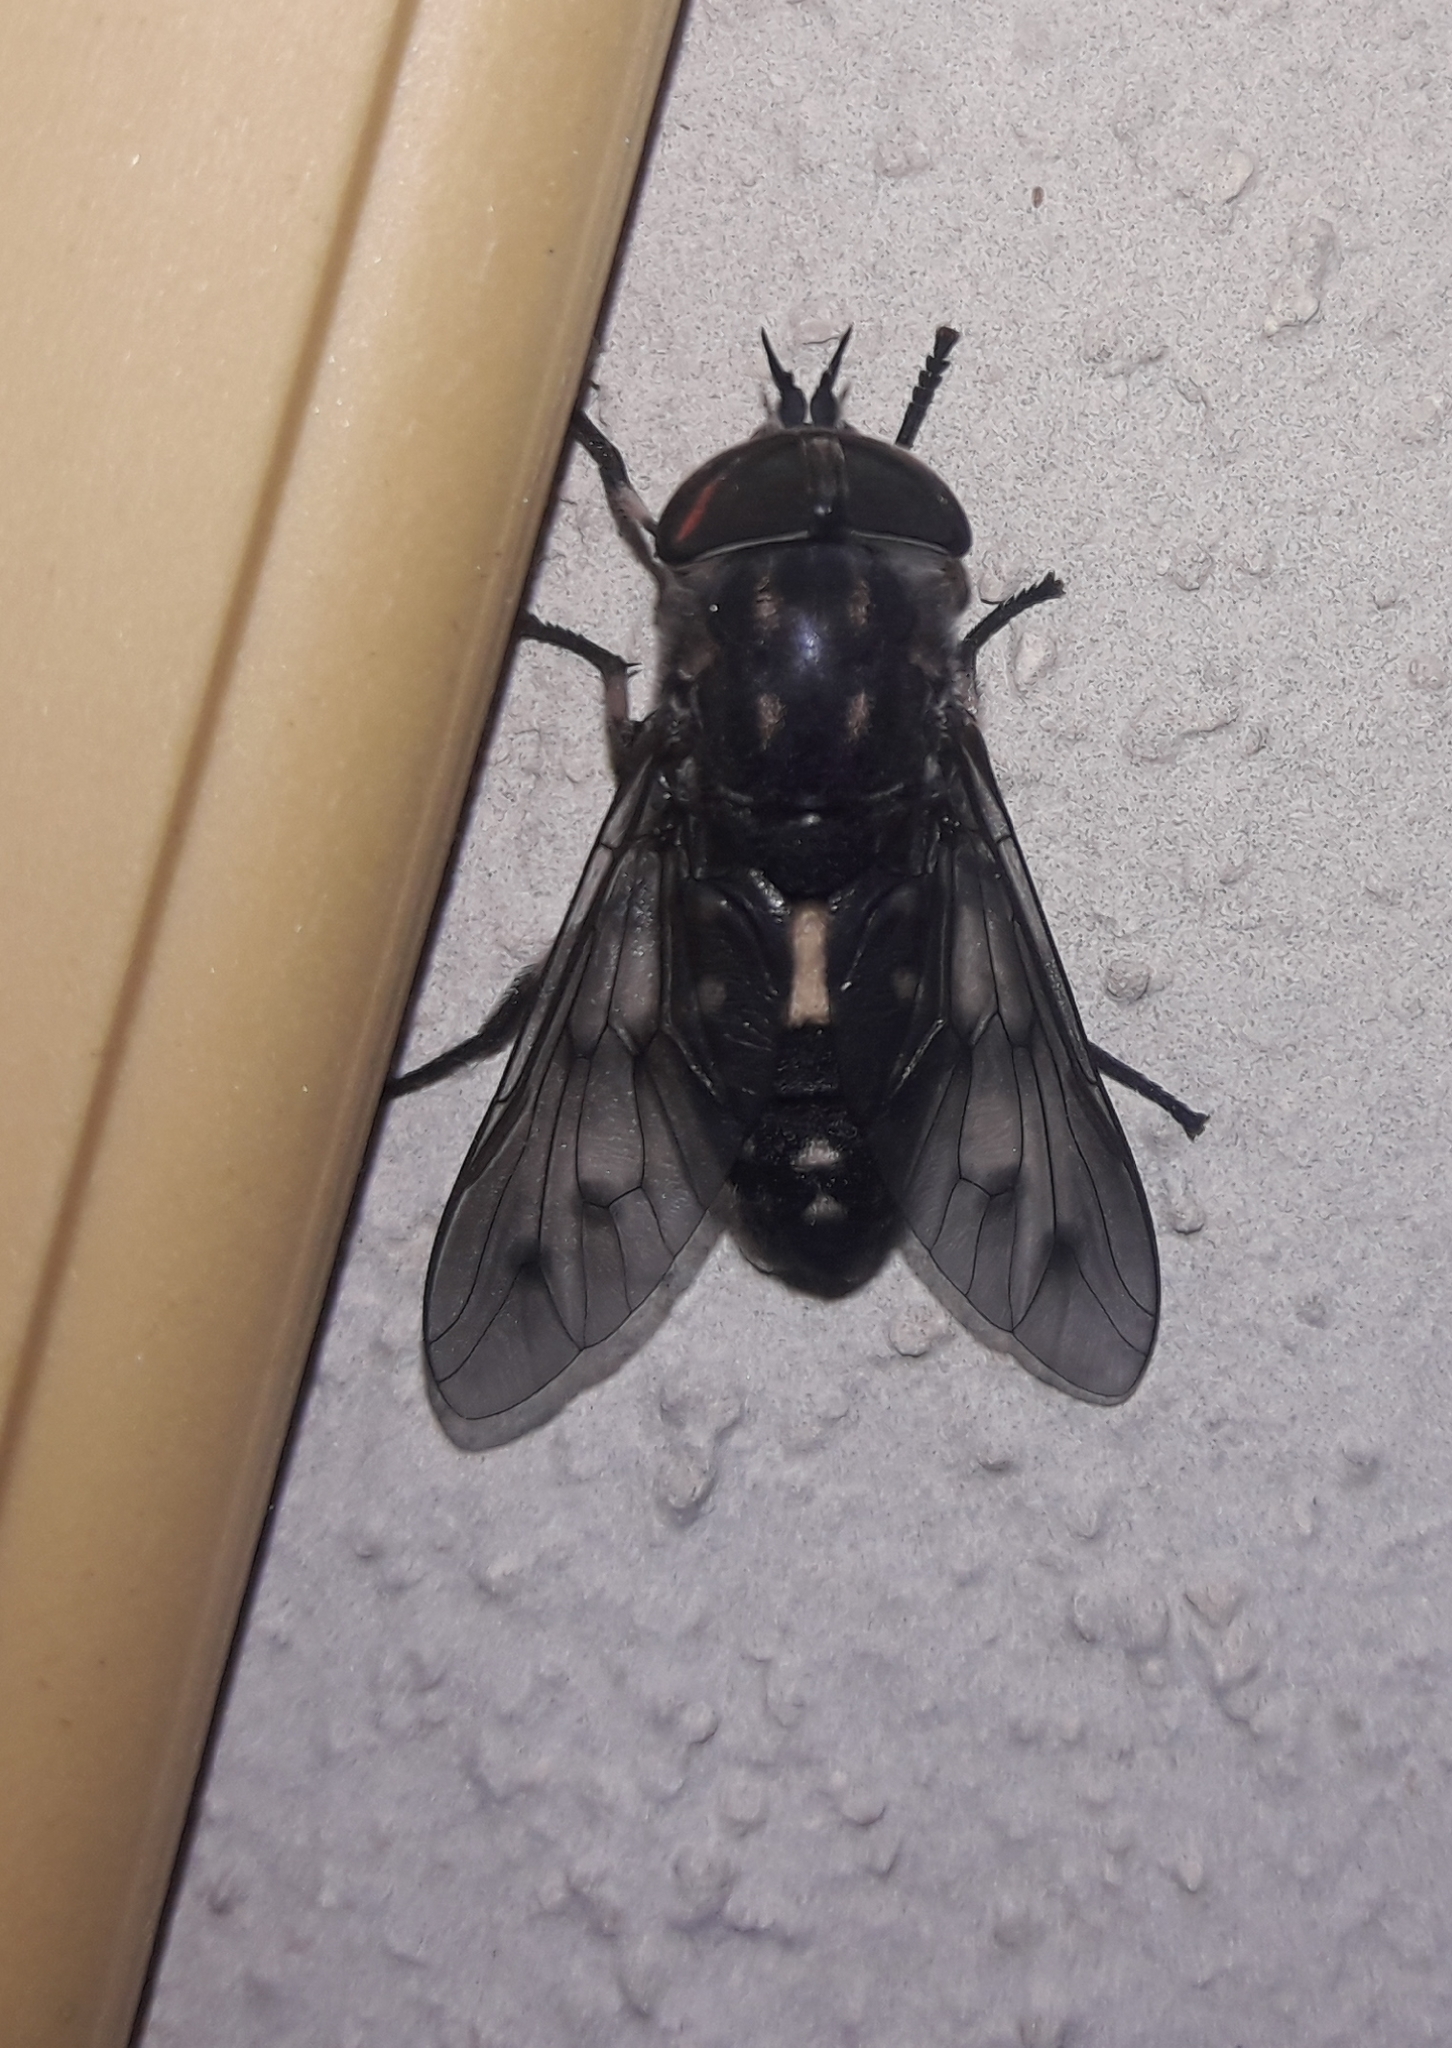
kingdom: Animalia
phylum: Arthropoda
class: Insecta
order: Diptera
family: Tabanidae
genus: Poeciloderas
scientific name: Poeciloderas quadripunctatus
